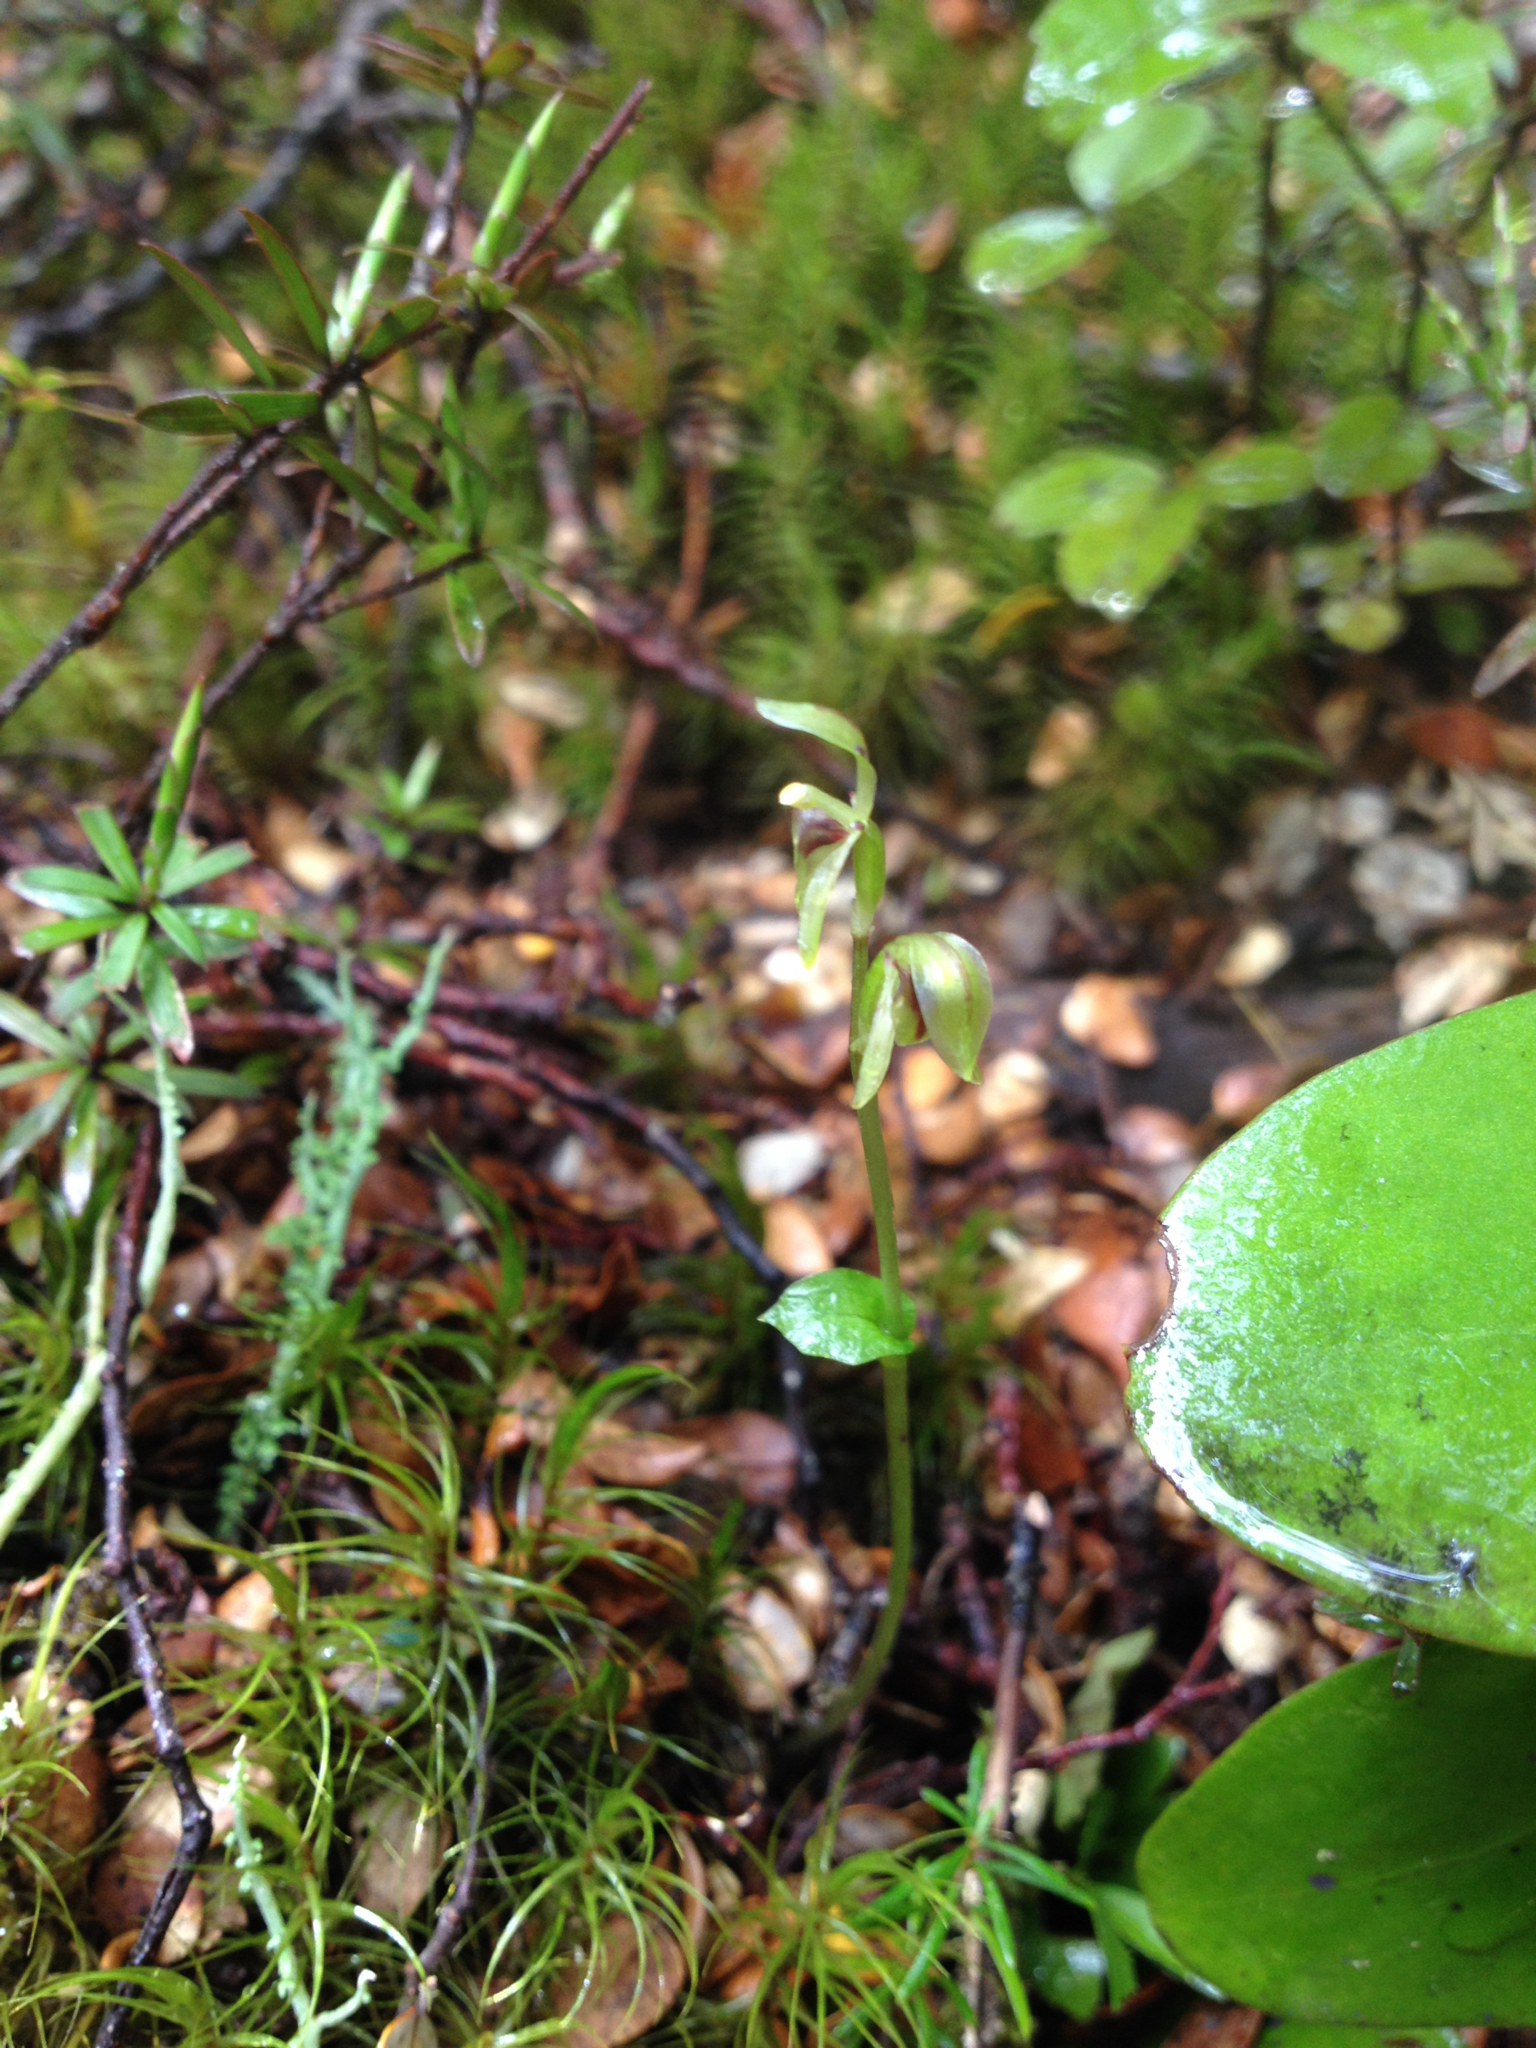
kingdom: Plantae
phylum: Tracheophyta
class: Liliopsida
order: Asparagales
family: Orchidaceae
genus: Townsonia
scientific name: Townsonia deflexa
